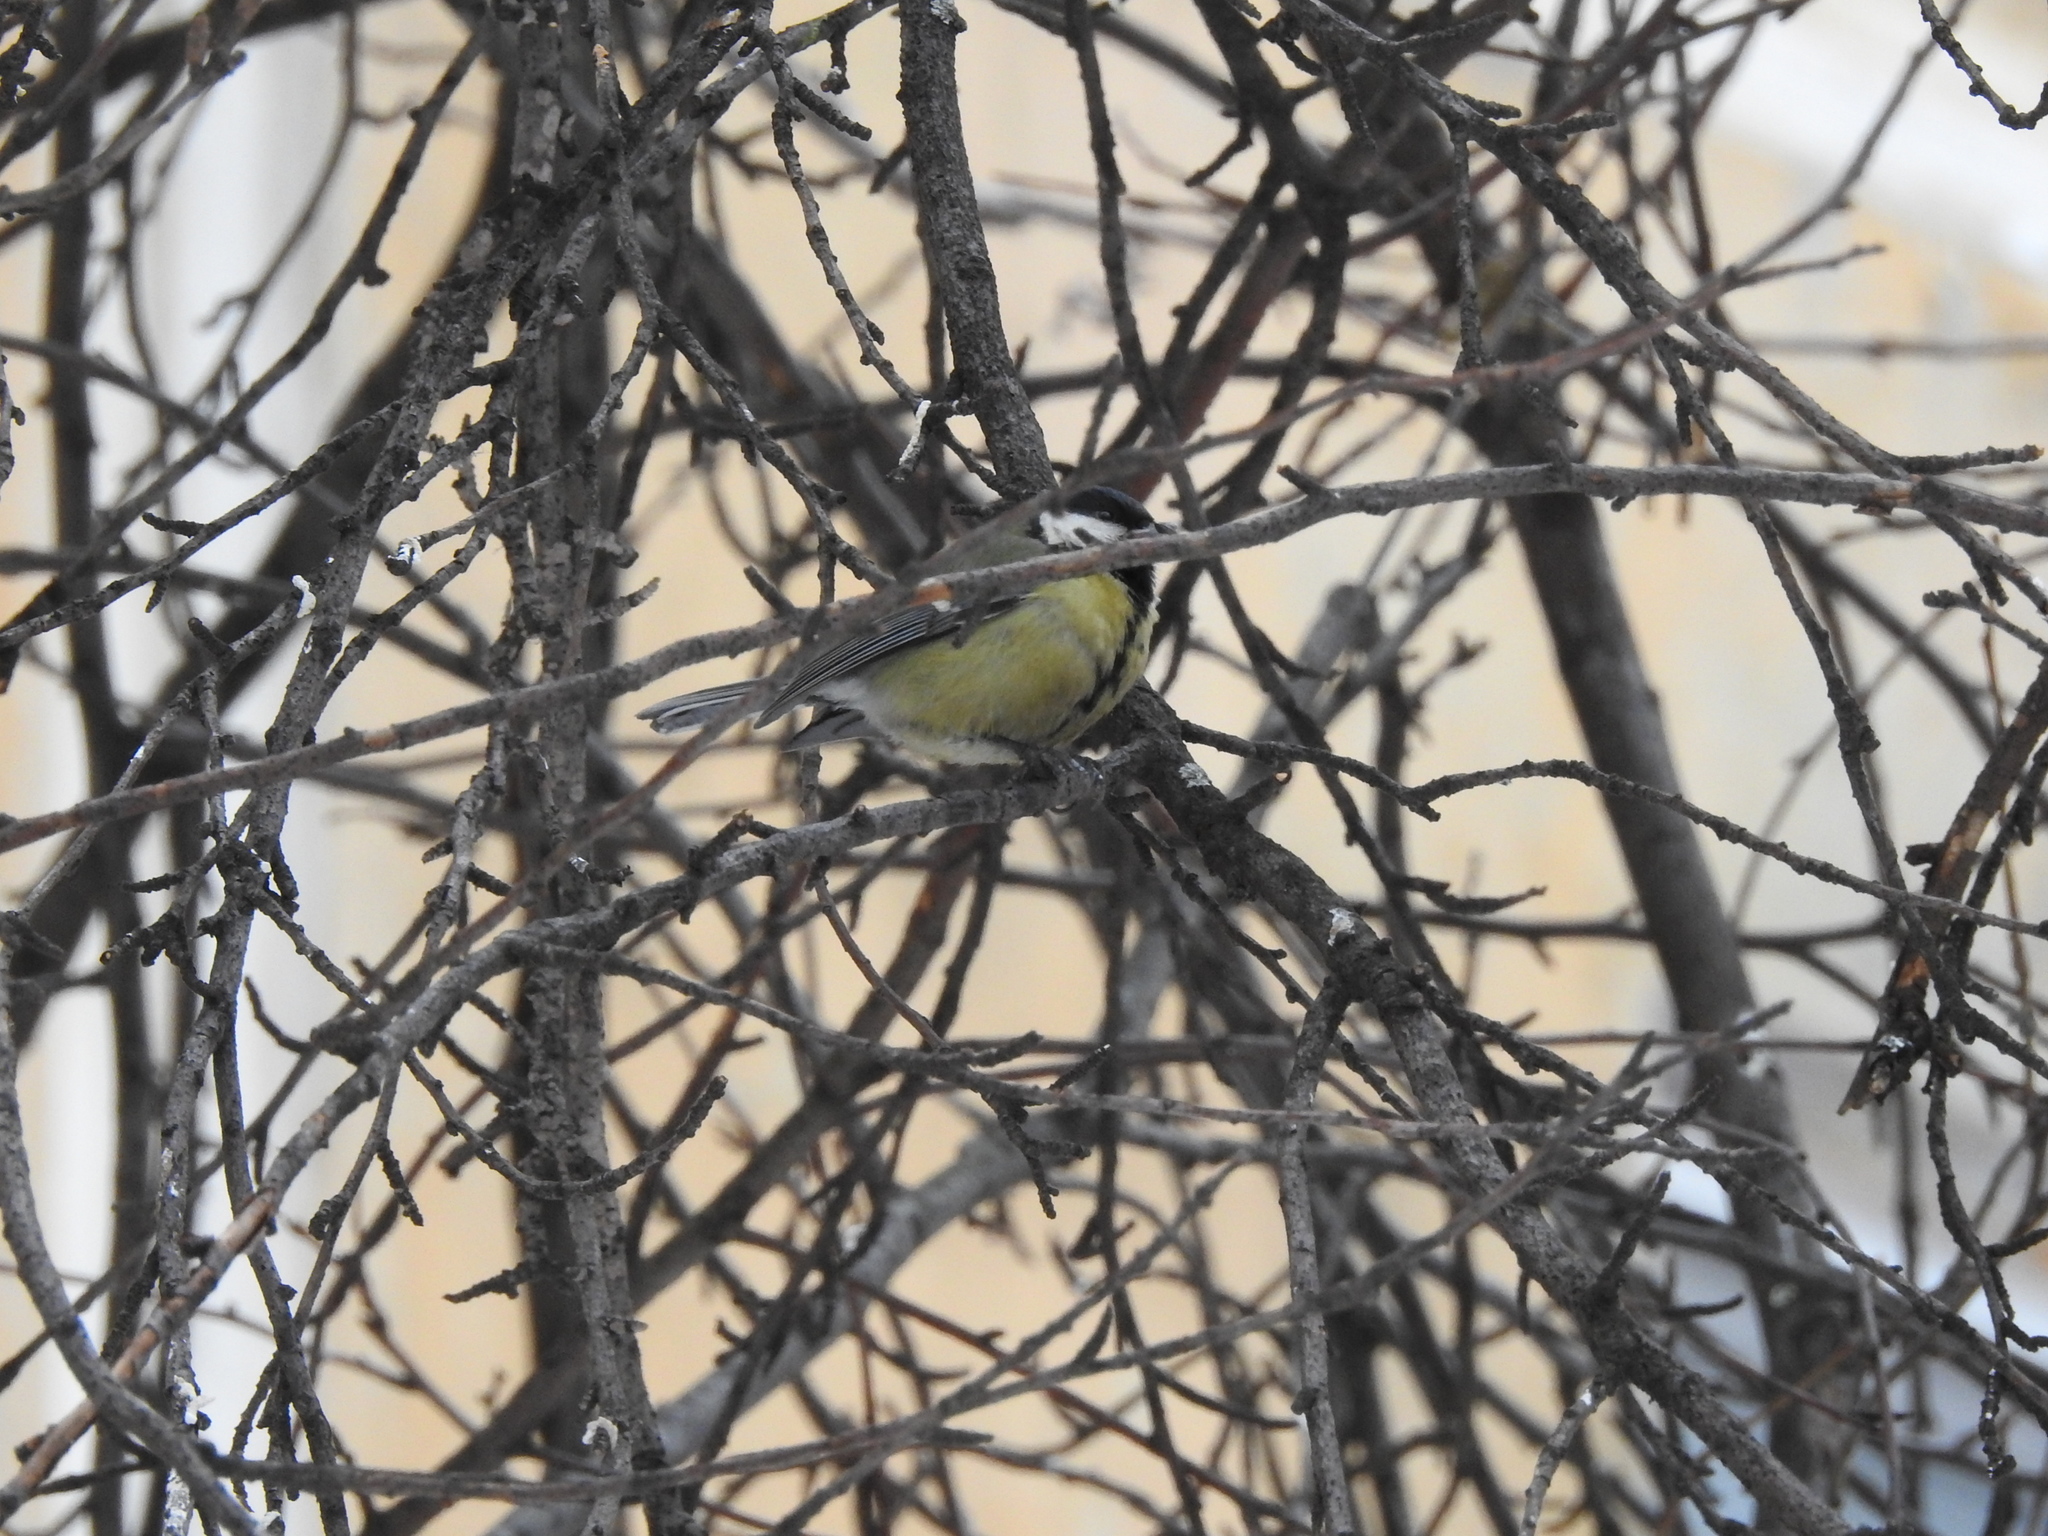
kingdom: Animalia
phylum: Chordata
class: Aves
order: Passeriformes
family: Paridae
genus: Parus
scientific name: Parus major
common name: Great tit
